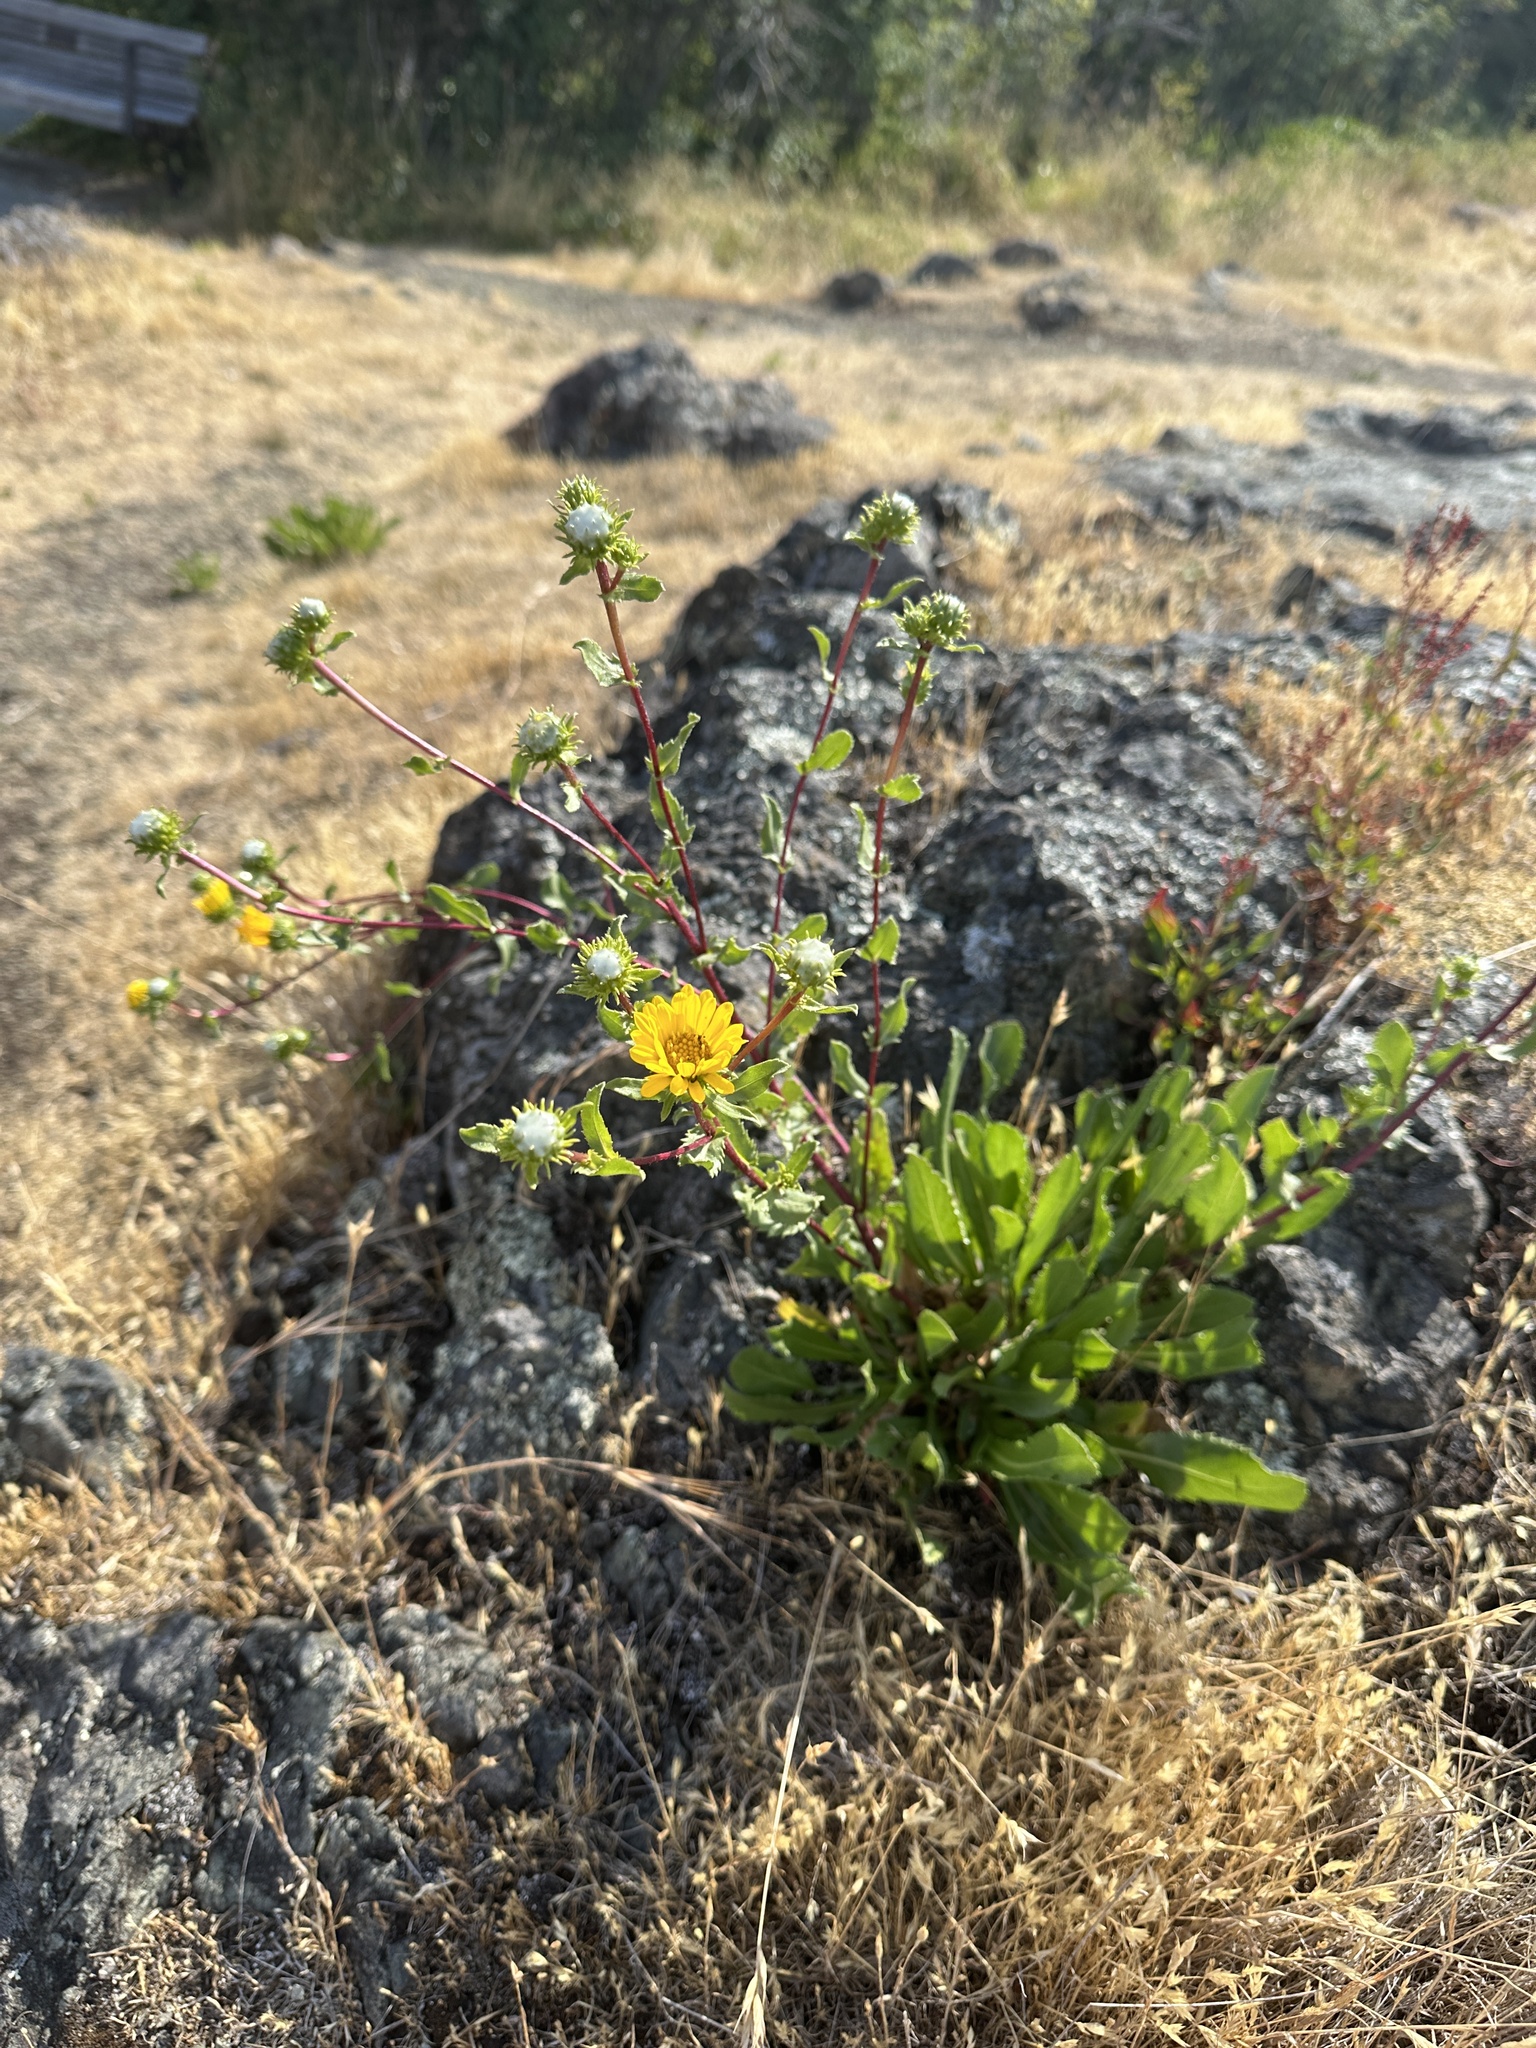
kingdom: Plantae
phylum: Tracheophyta
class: Magnoliopsida
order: Asterales
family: Asteraceae
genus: Grindelia
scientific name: Grindelia hirsutula
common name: Hairy gumweed
